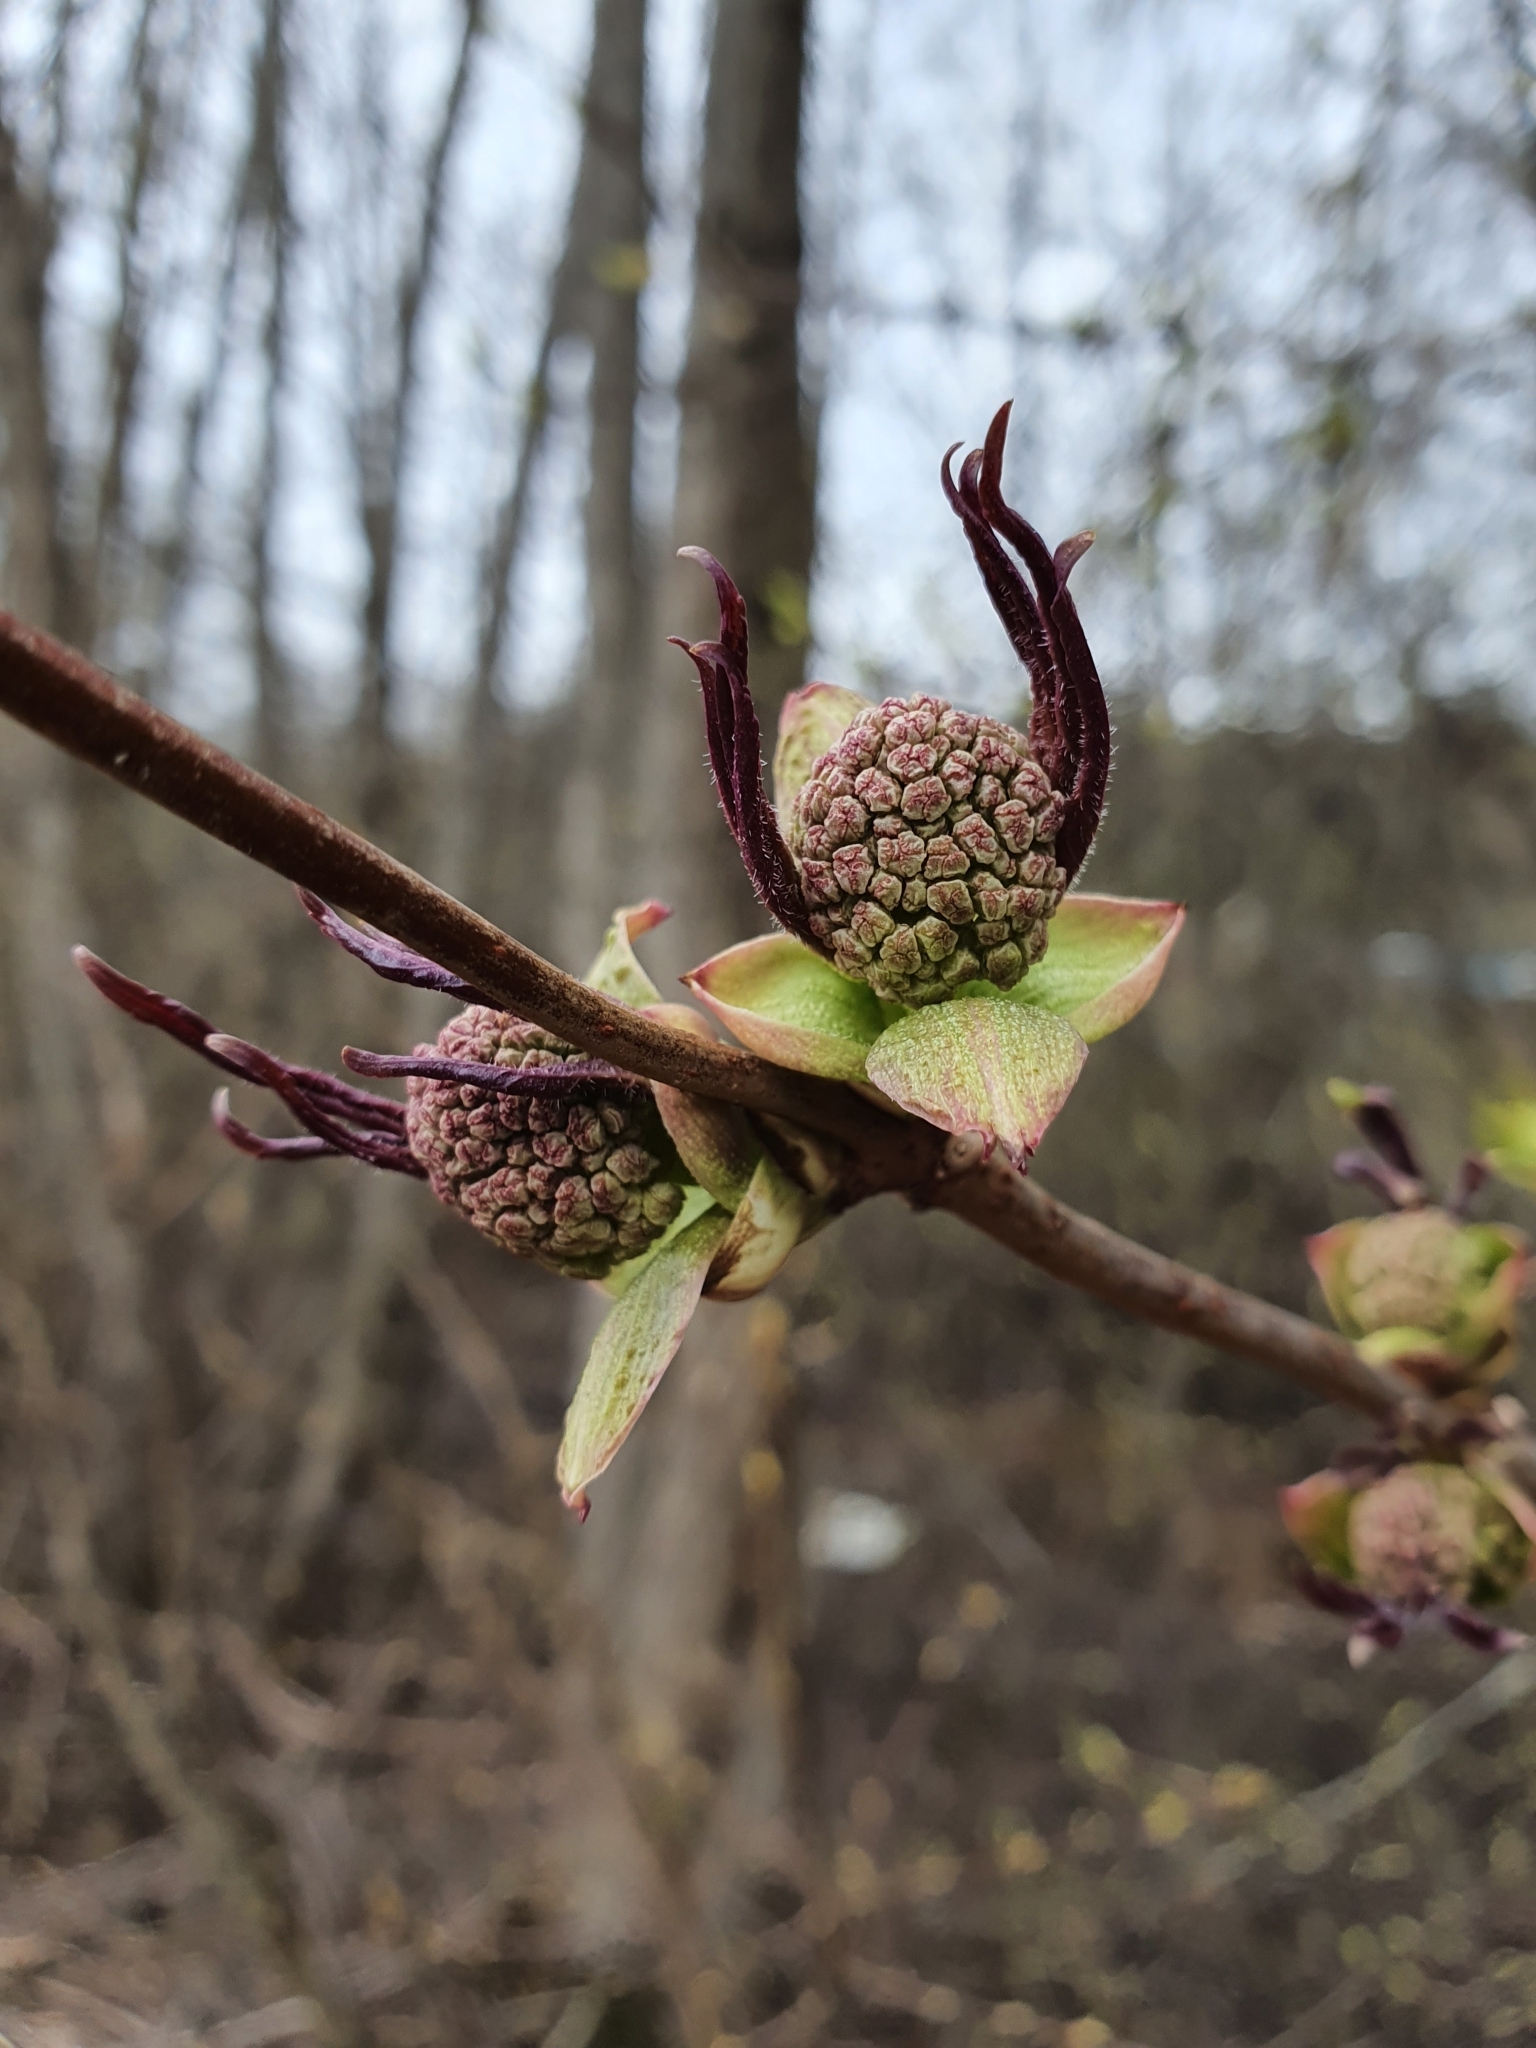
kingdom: Plantae
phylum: Tracheophyta
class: Magnoliopsida
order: Dipsacales
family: Viburnaceae
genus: Sambucus
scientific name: Sambucus racemosa
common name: Red-berried elder
